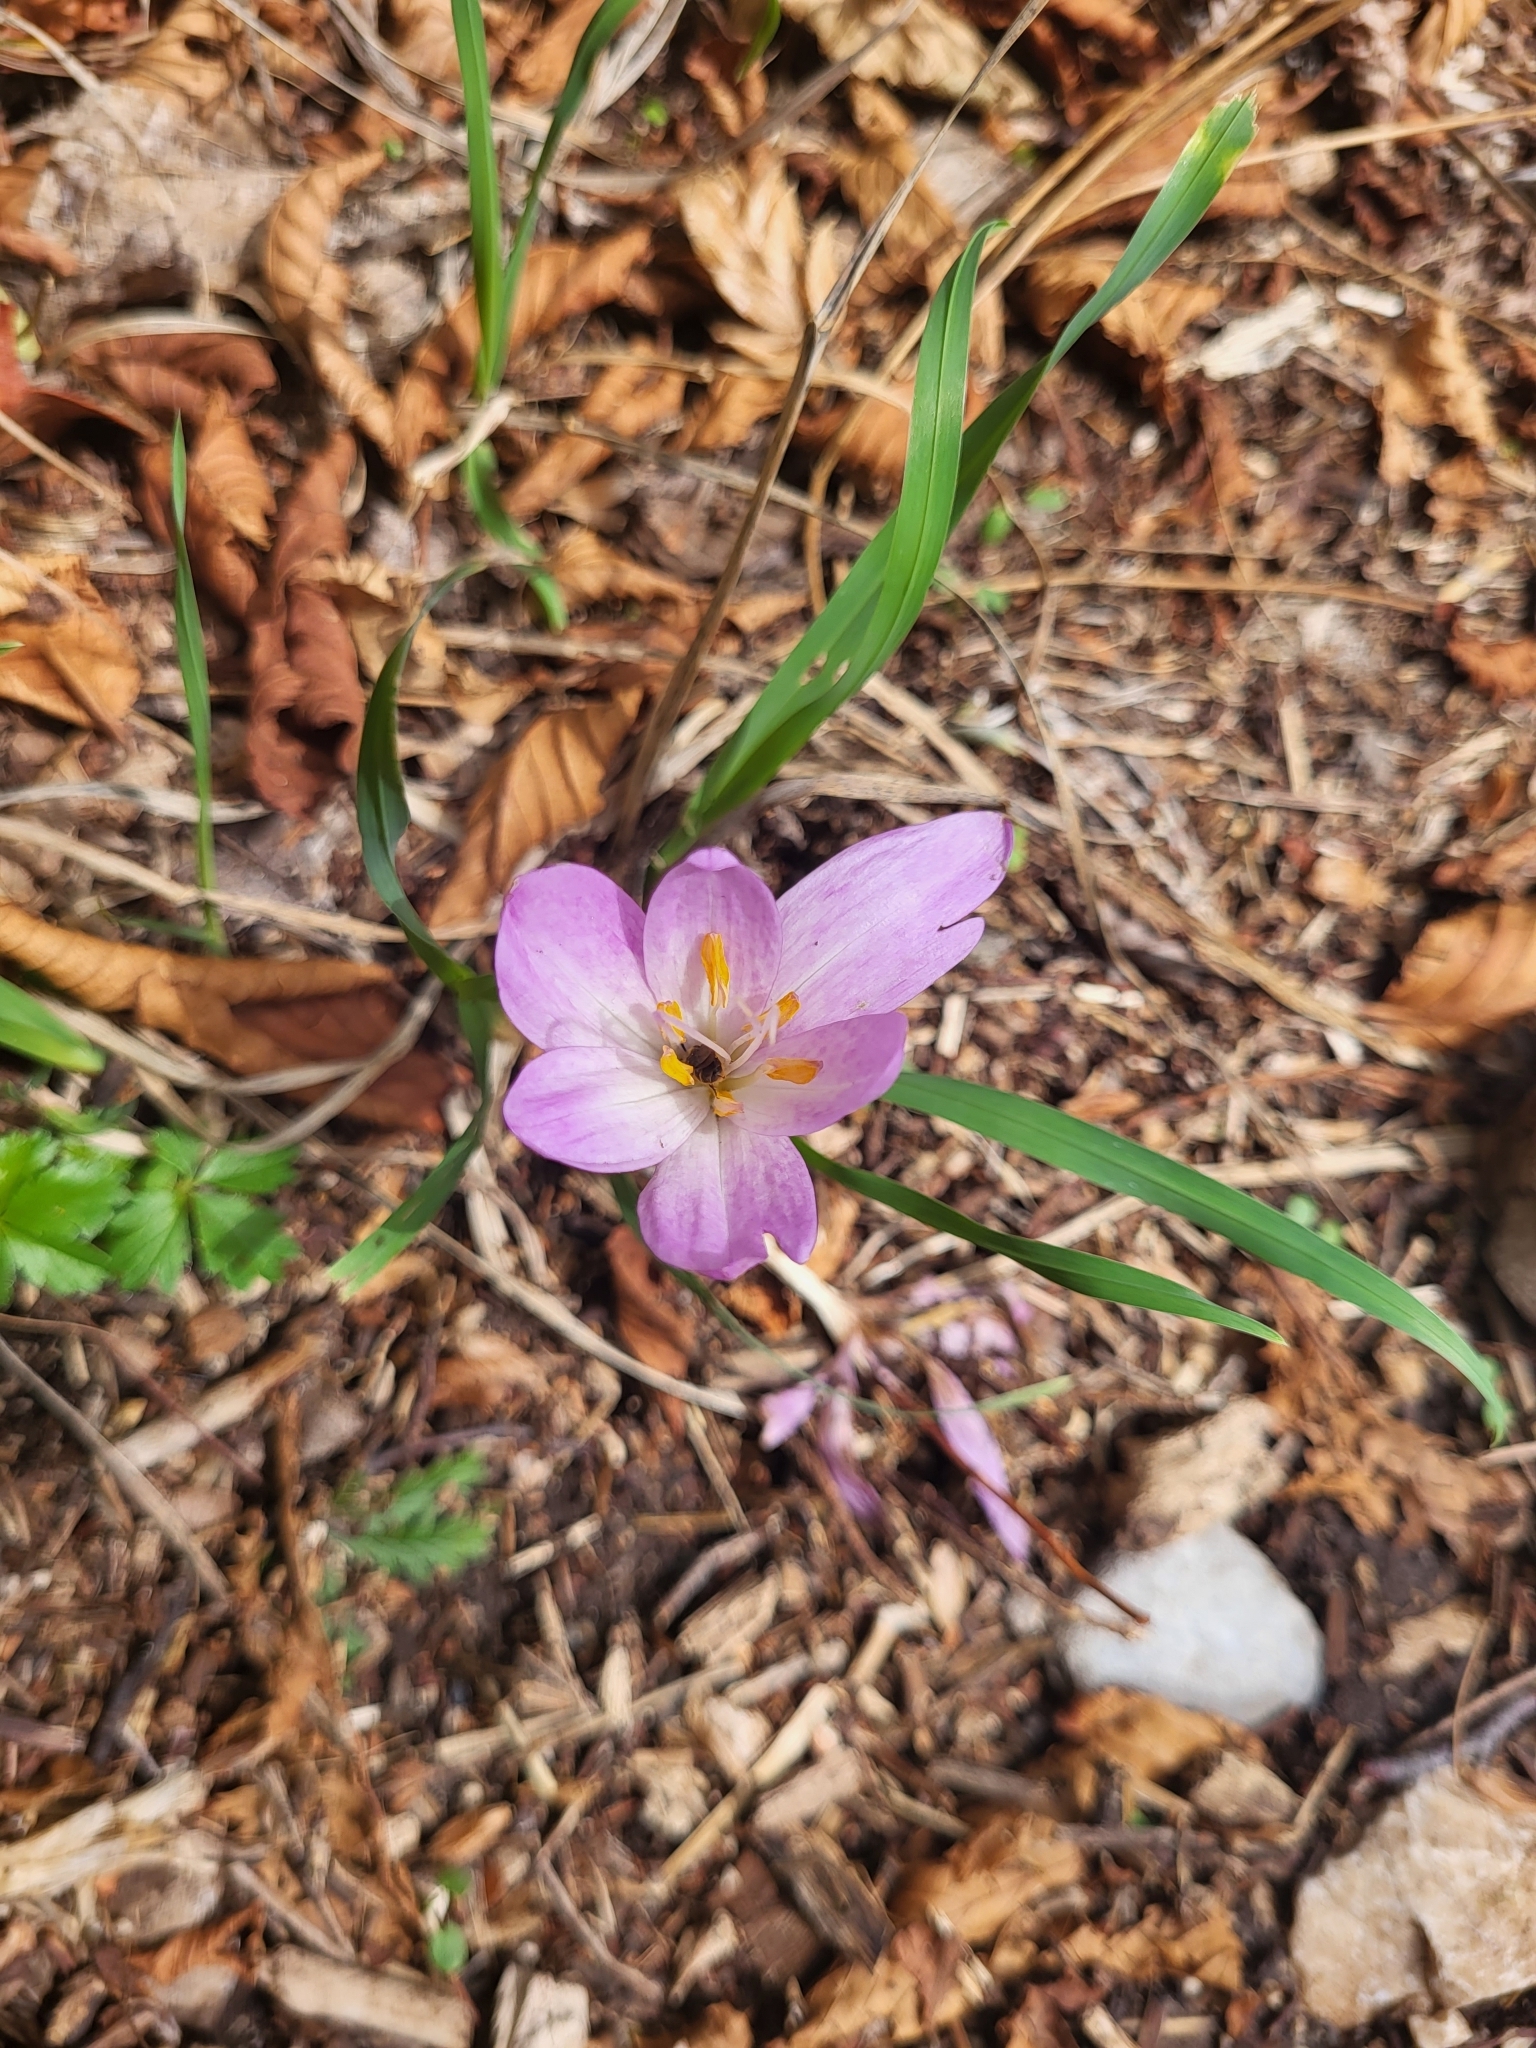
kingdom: Plantae
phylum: Tracheophyta
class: Liliopsida
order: Liliales
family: Colchicaceae
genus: Colchicum
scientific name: Colchicum haynaldii
